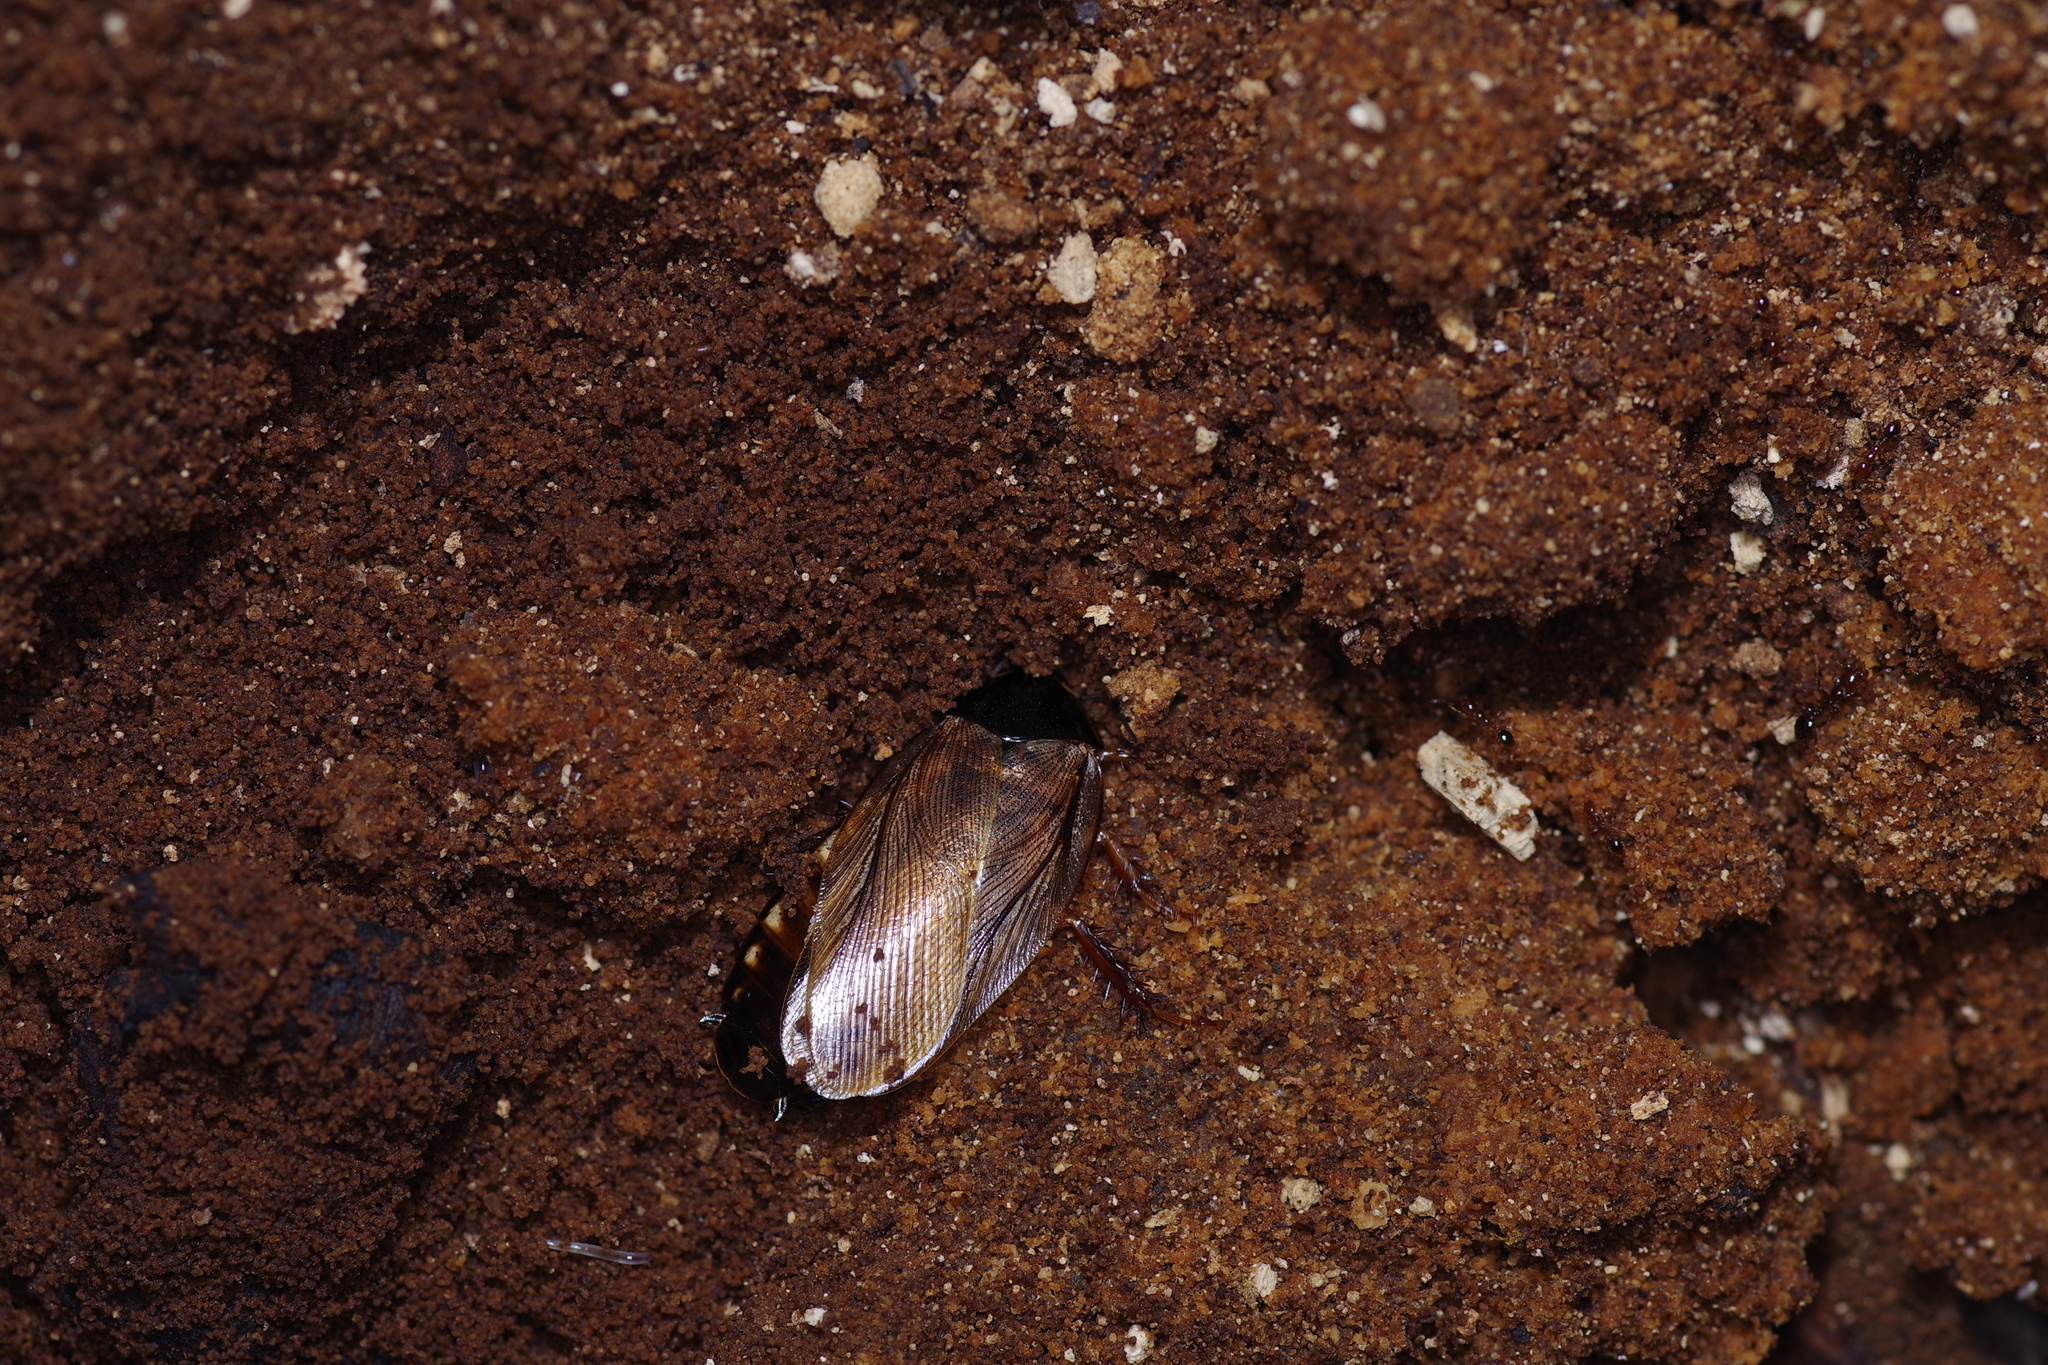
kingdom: Animalia
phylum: Arthropoda
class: Insecta
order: Blattodea
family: Blaberidae
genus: Pycnoscelus
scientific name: Pycnoscelus surinamensis
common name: Surinam cockroach
